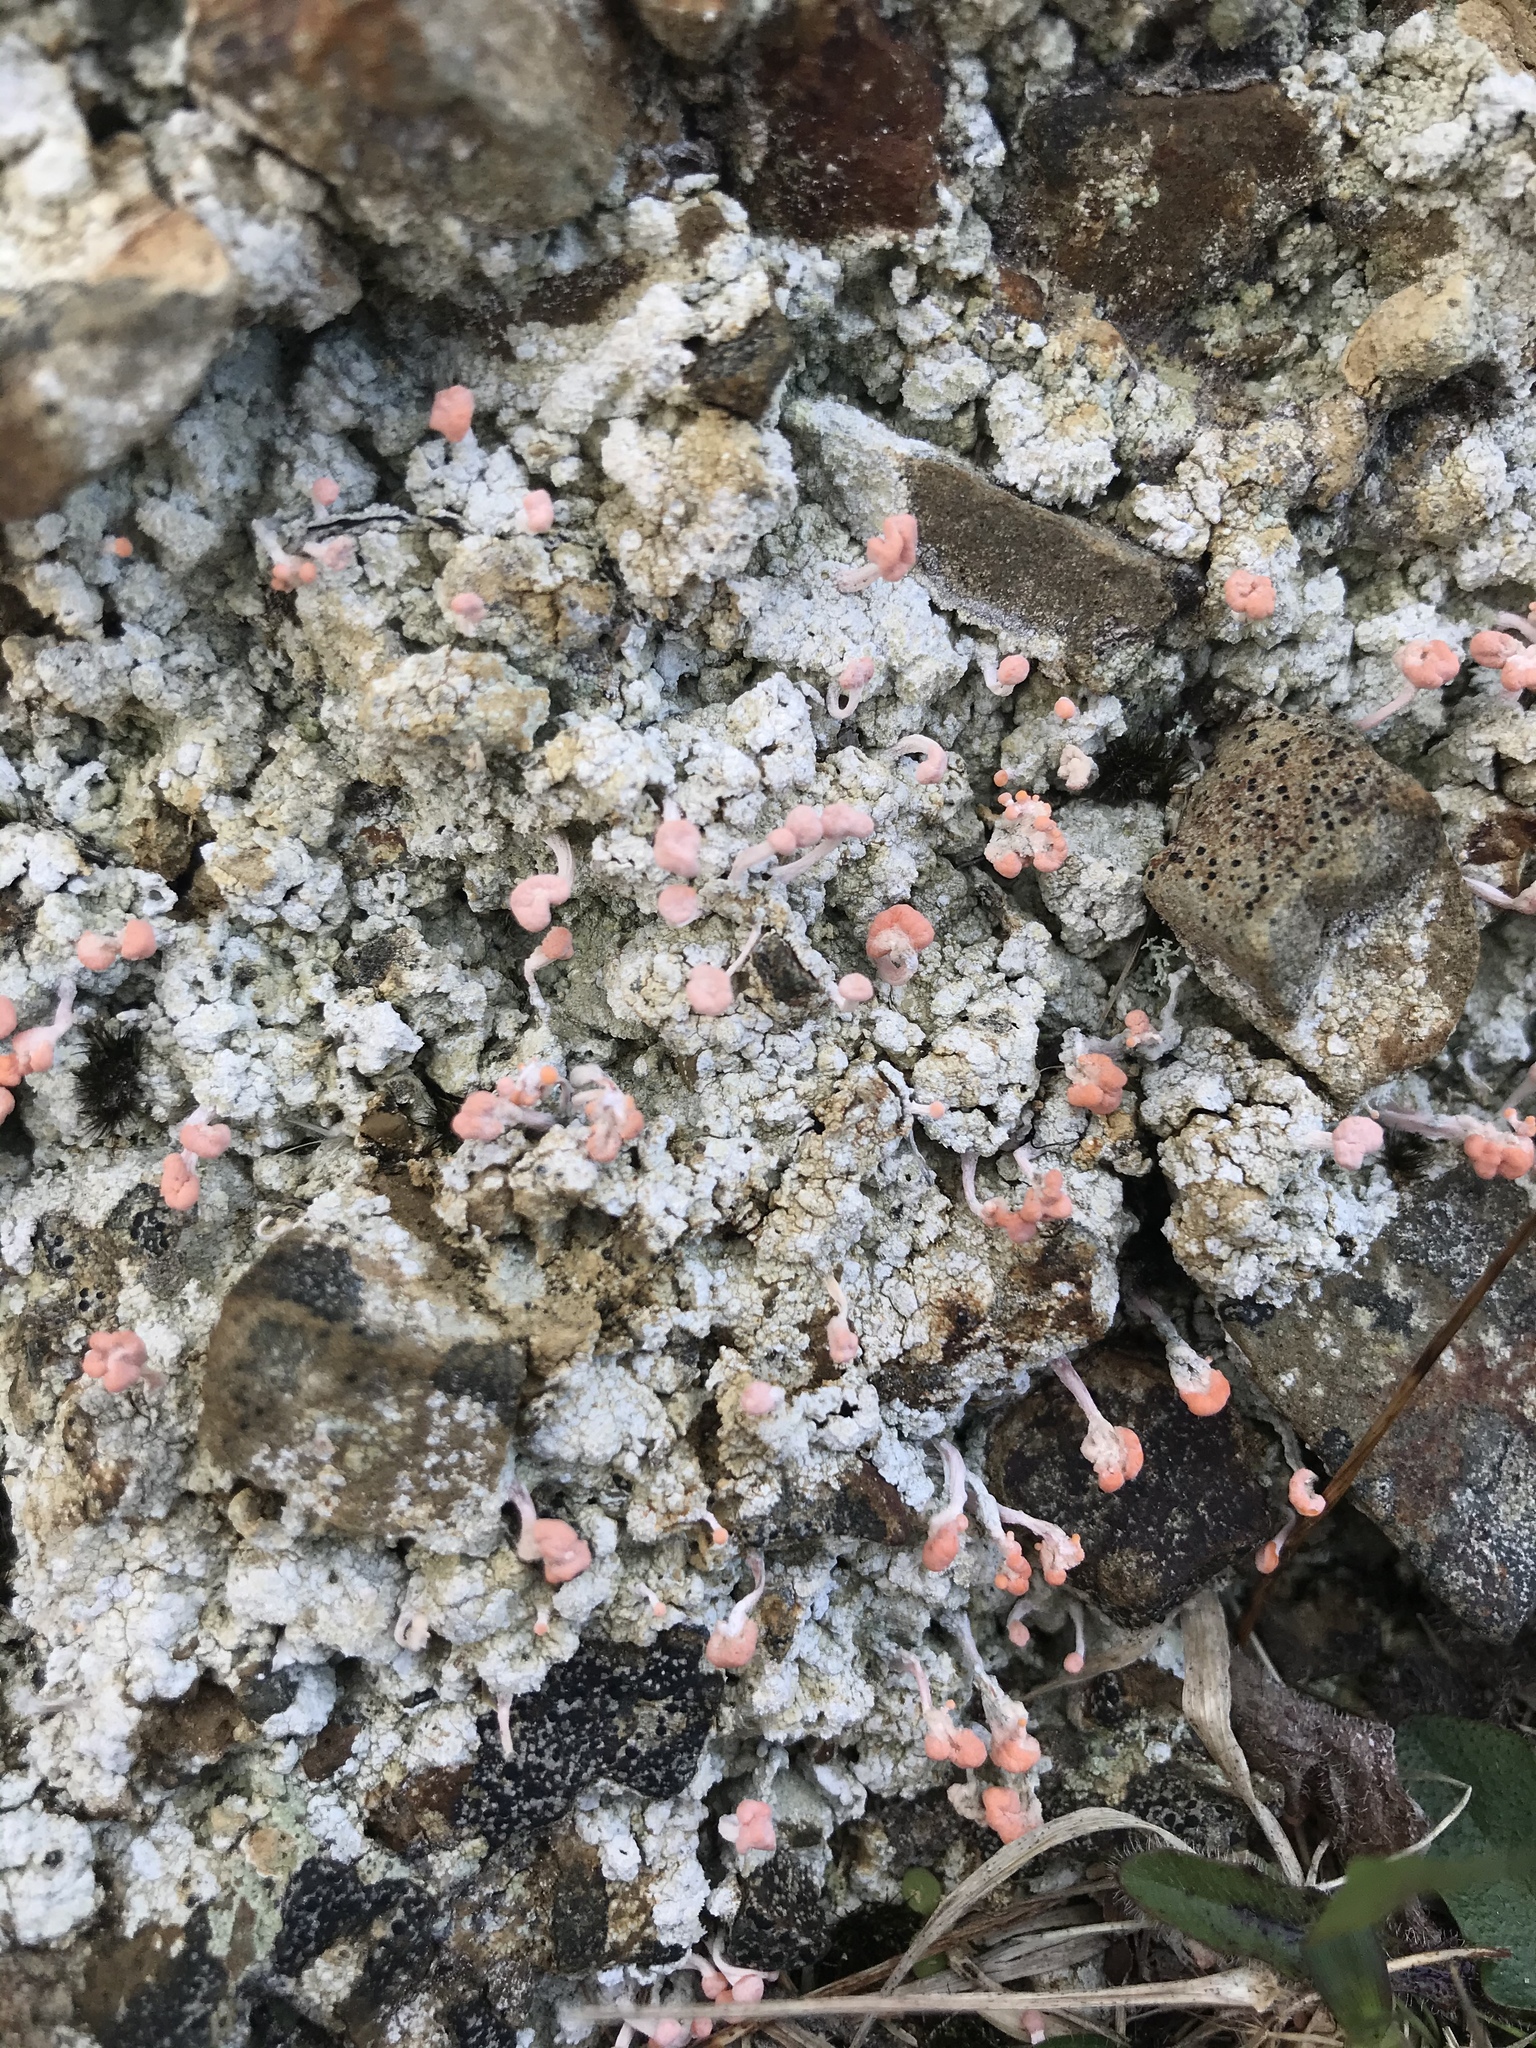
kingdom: Fungi
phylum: Ascomycota
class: Lecanoromycetes
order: Pertusariales
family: Icmadophilaceae
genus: Dibaeis
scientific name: Dibaeis arcuata
